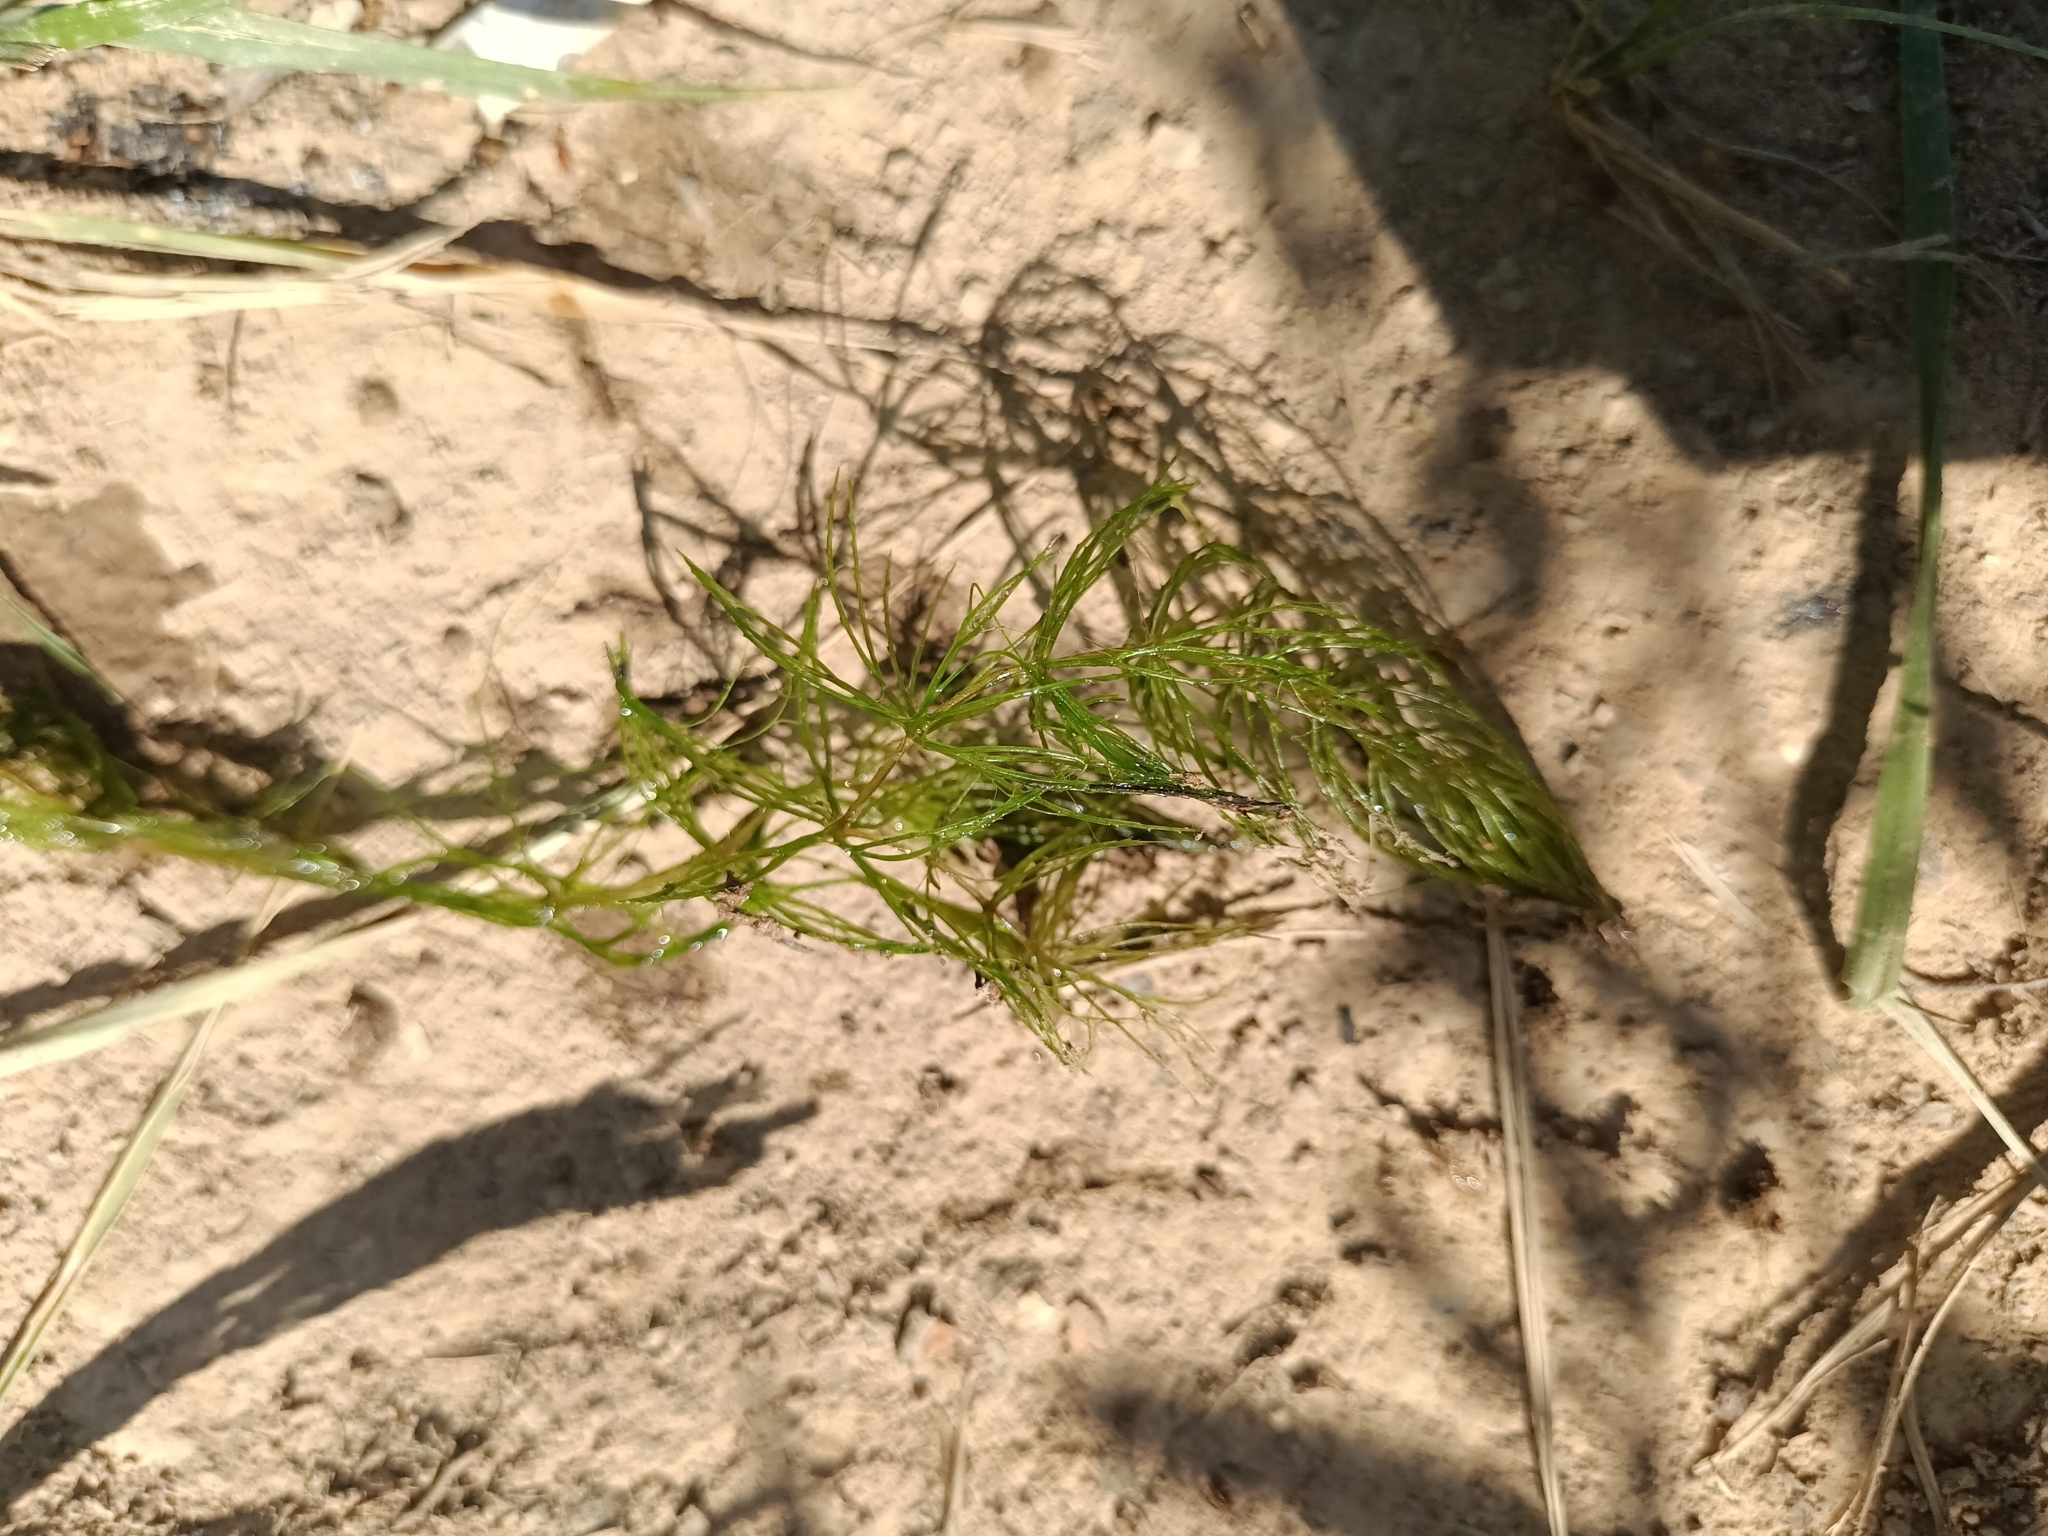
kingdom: Plantae
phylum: Tracheophyta
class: Magnoliopsida
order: Ceratophyllales
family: Ceratophyllaceae
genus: Ceratophyllum
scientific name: Ceratophyllum demersum
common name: Rigid hornwort
